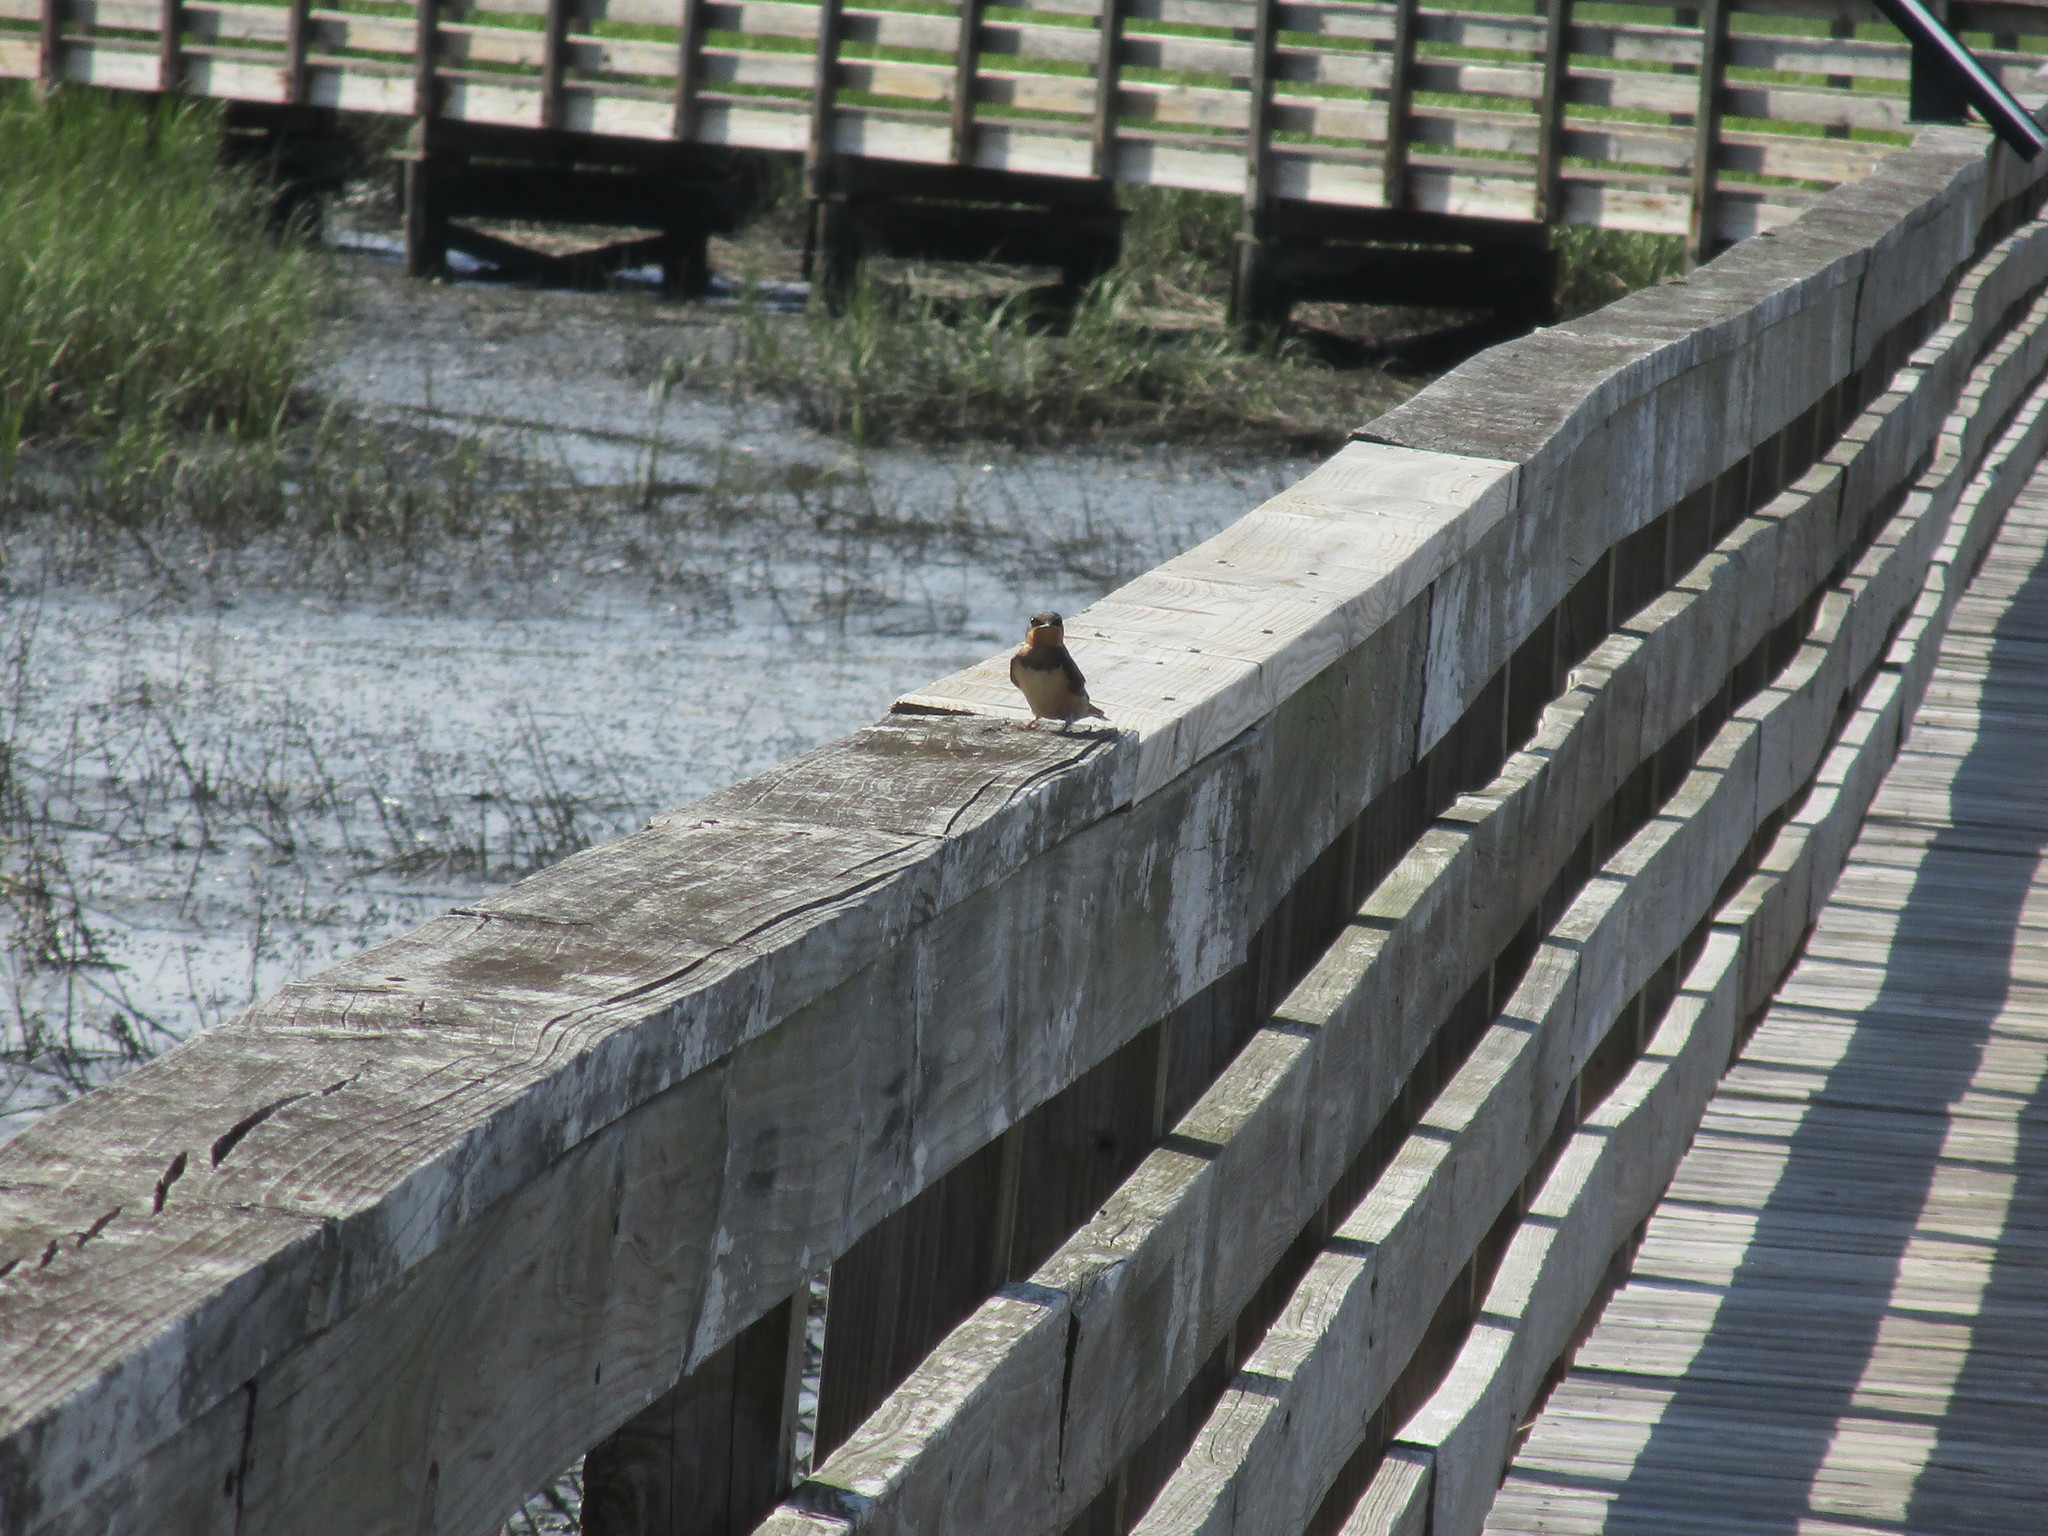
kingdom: Animalia
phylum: Chordata
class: Aves
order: Passeriformes
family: Hirundinidae
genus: Hirundo
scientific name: Hirundo rustica
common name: Barn swallow
